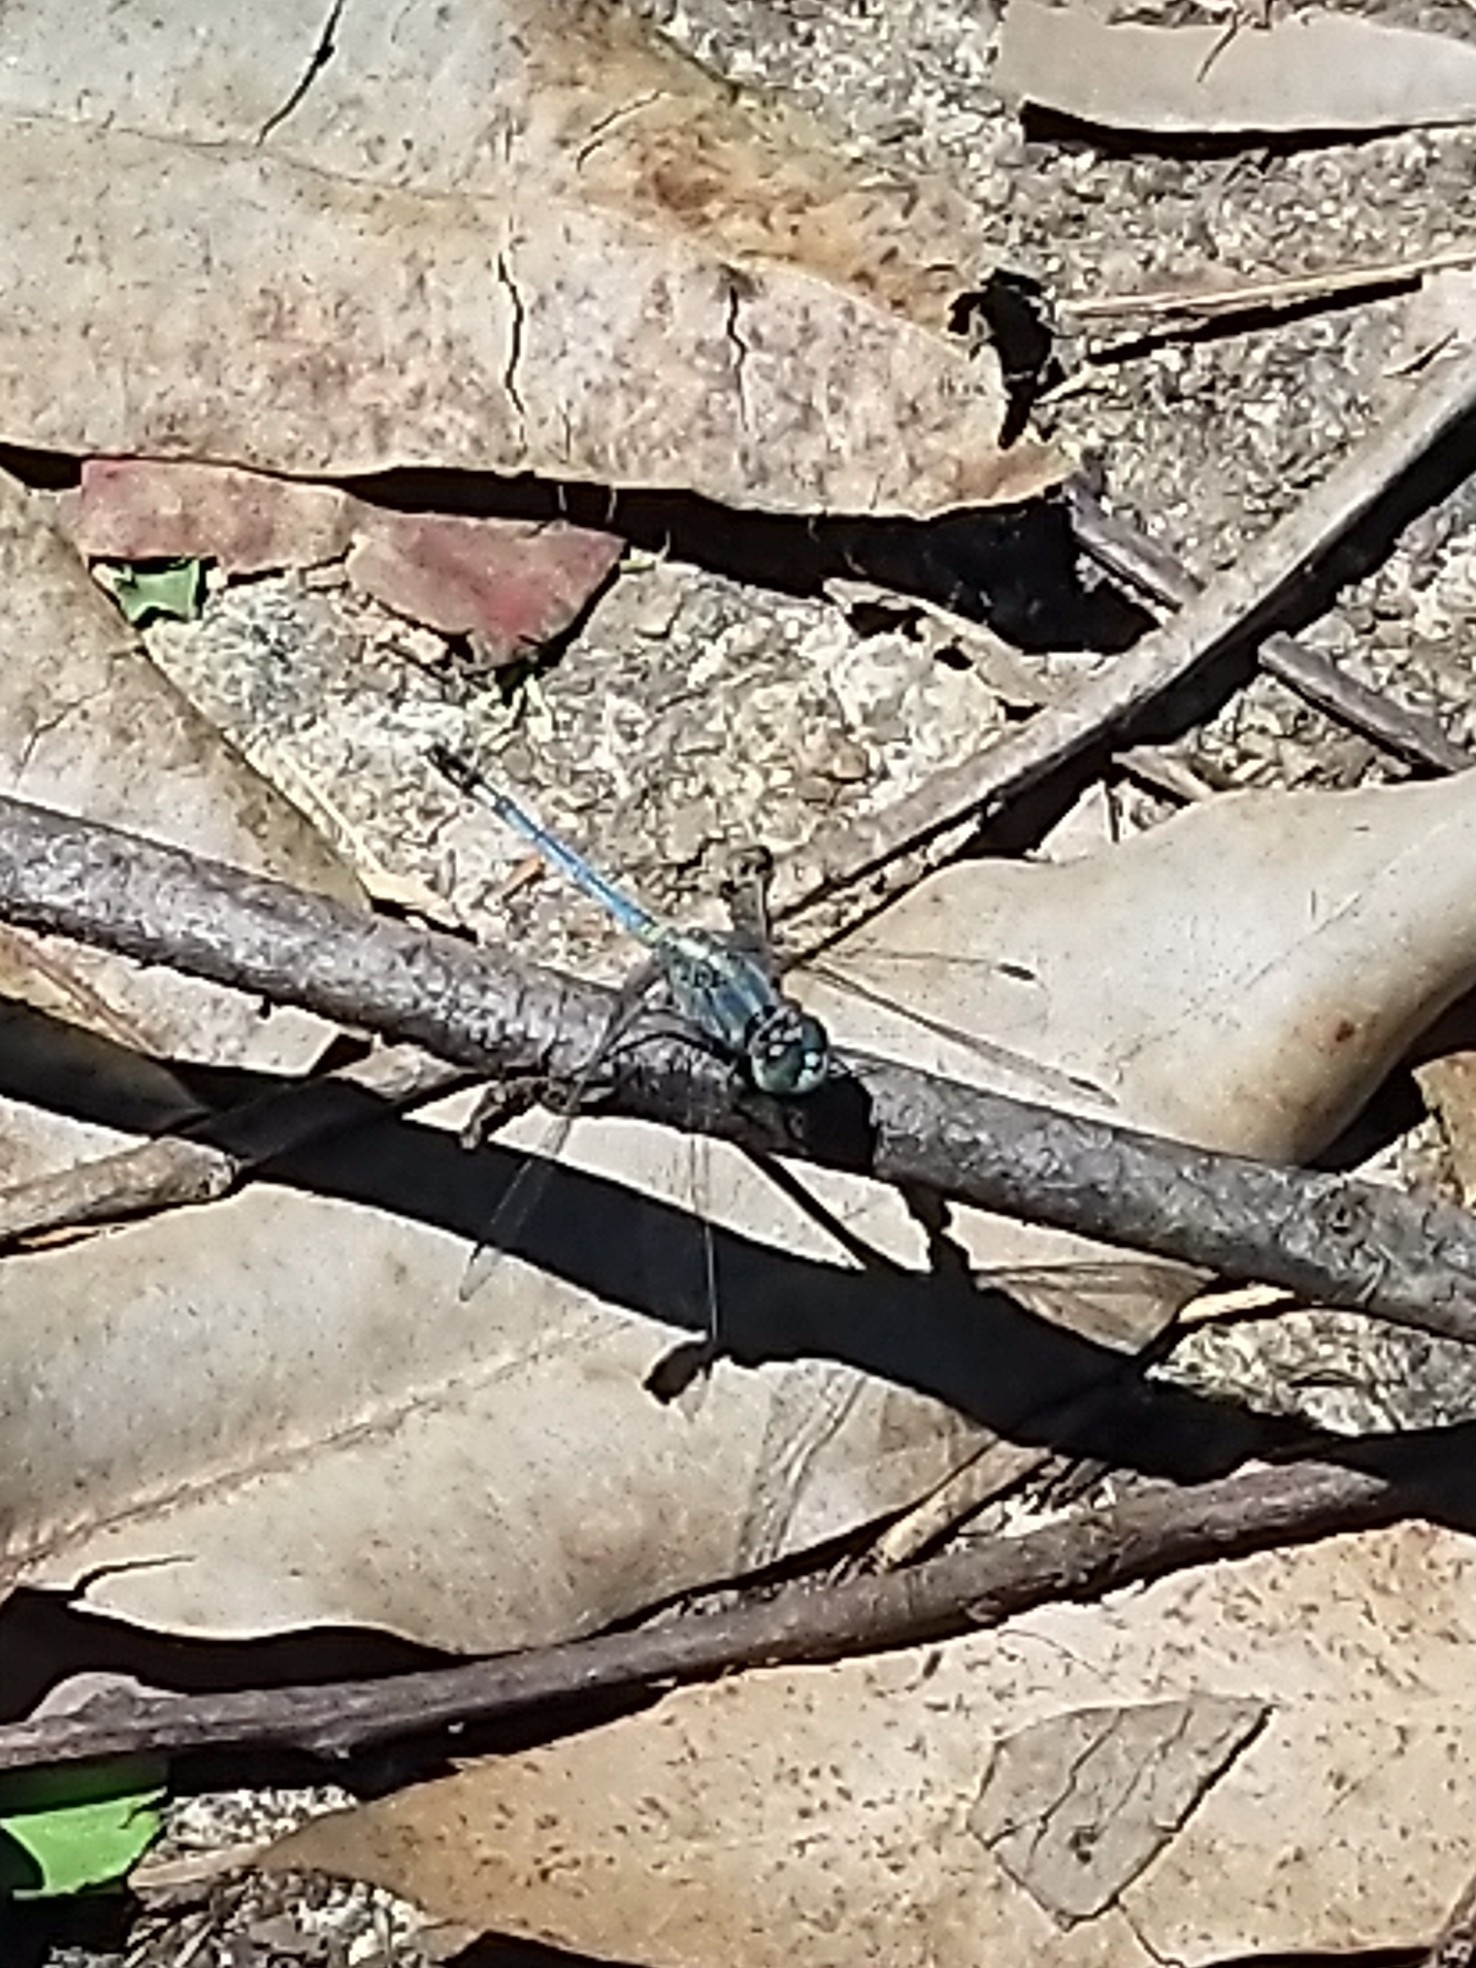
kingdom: Animalia
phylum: Arthropoda
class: Insecta
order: Odonata
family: Libellulidae
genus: Diplacodes
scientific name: Diplacodes trivialis
